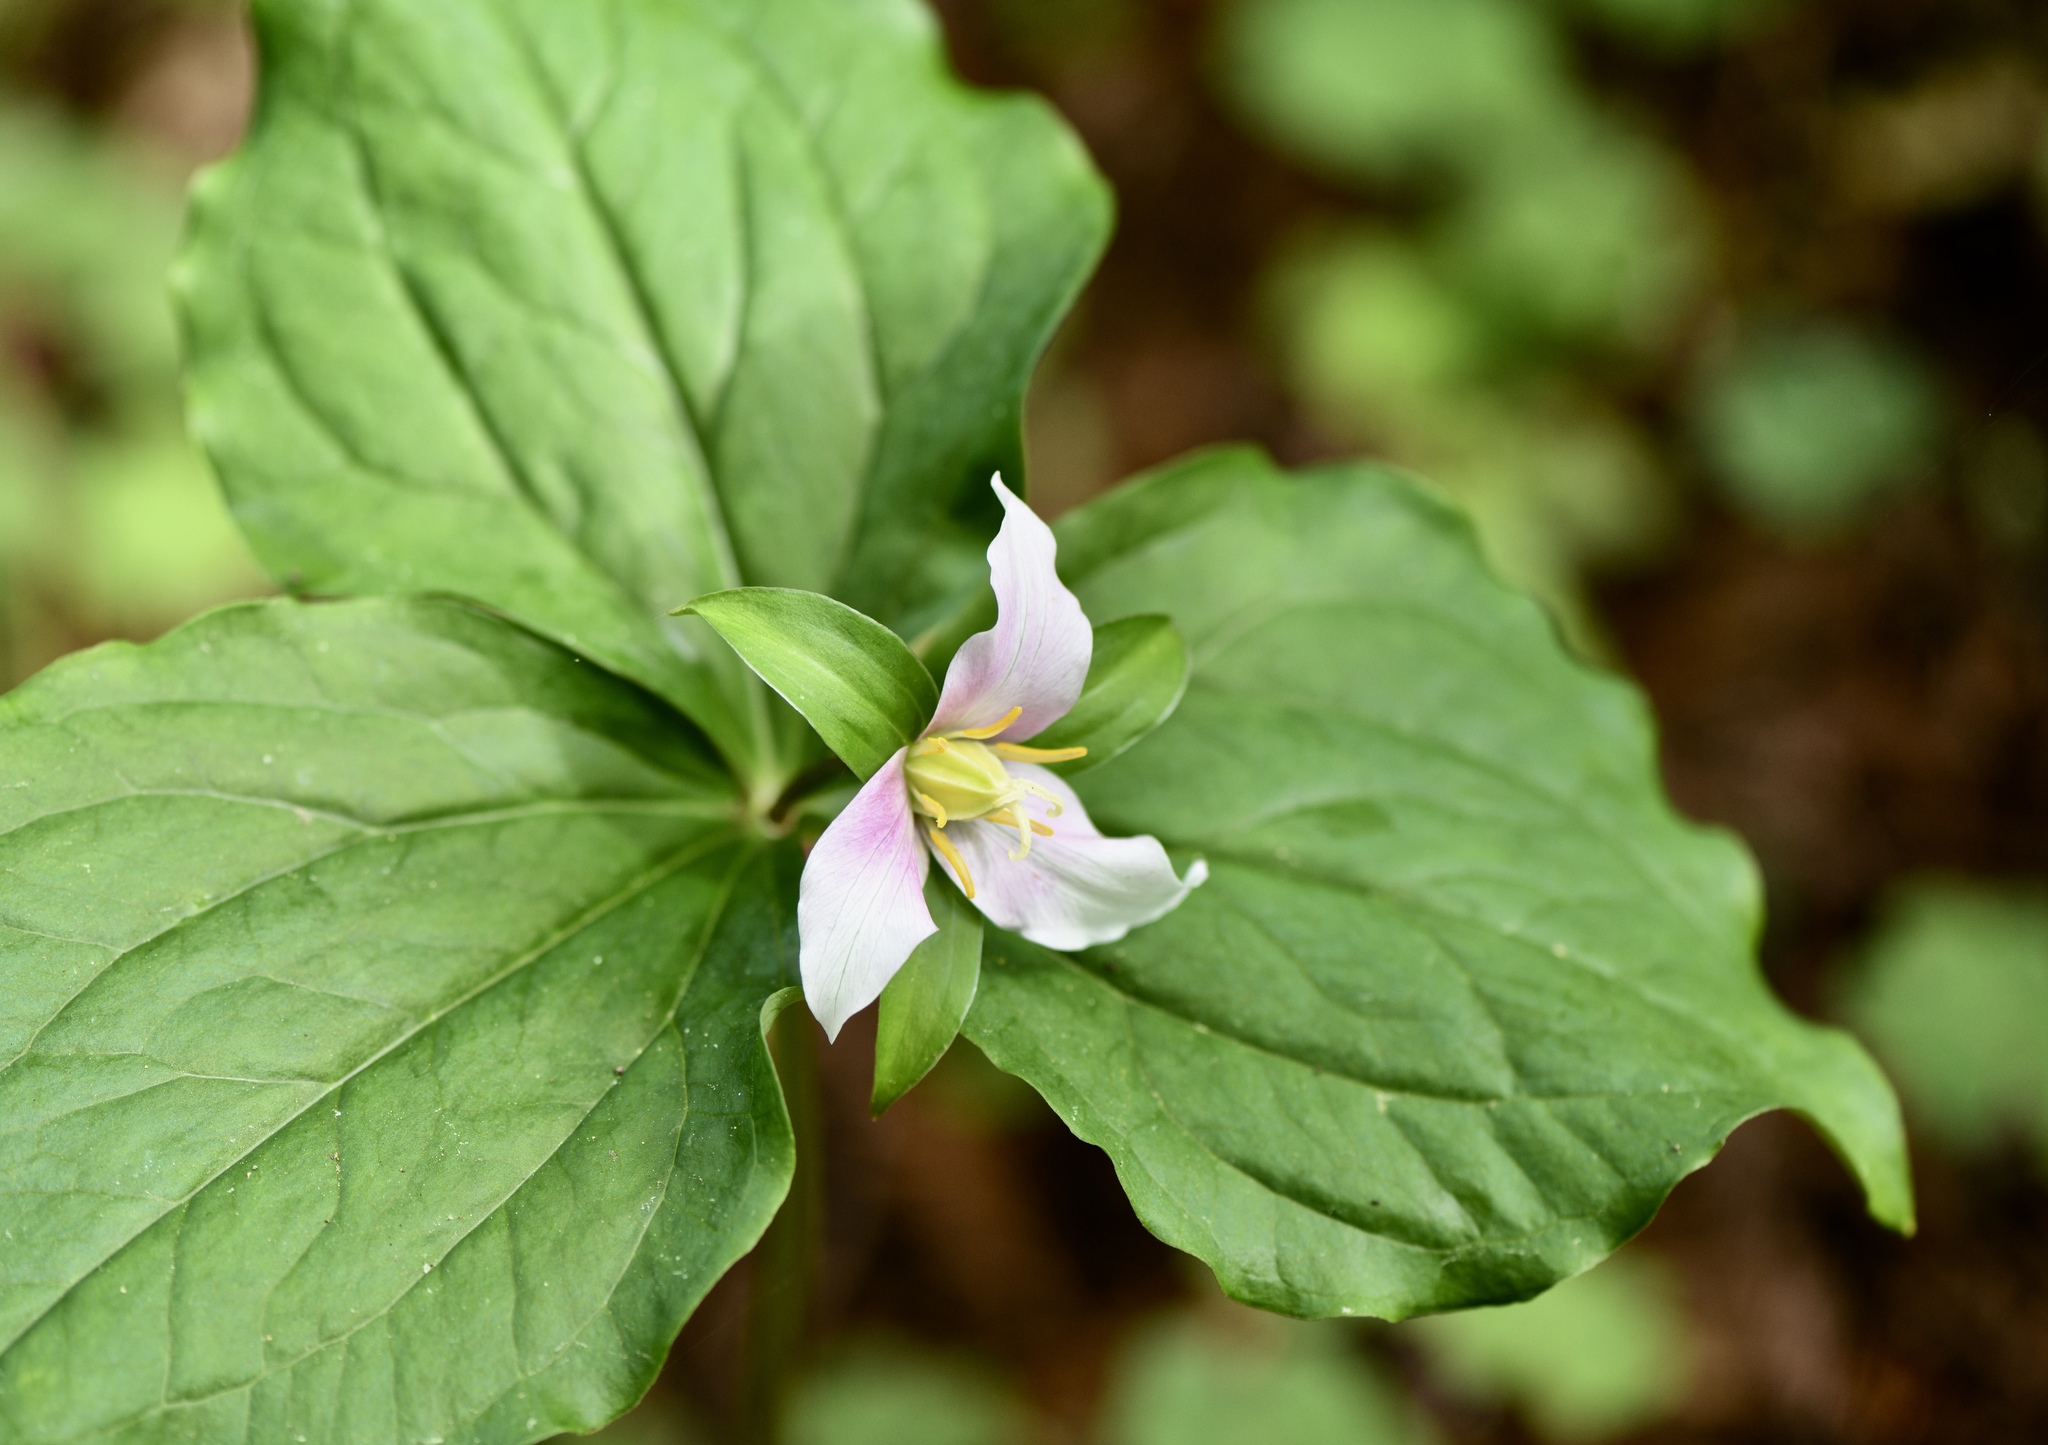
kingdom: Plantae
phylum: Tracheophyta
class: Liliopsida
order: Liliales
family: Melanthiaceae
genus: Trillium
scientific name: Trillium ovatum
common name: Pacific trillium
